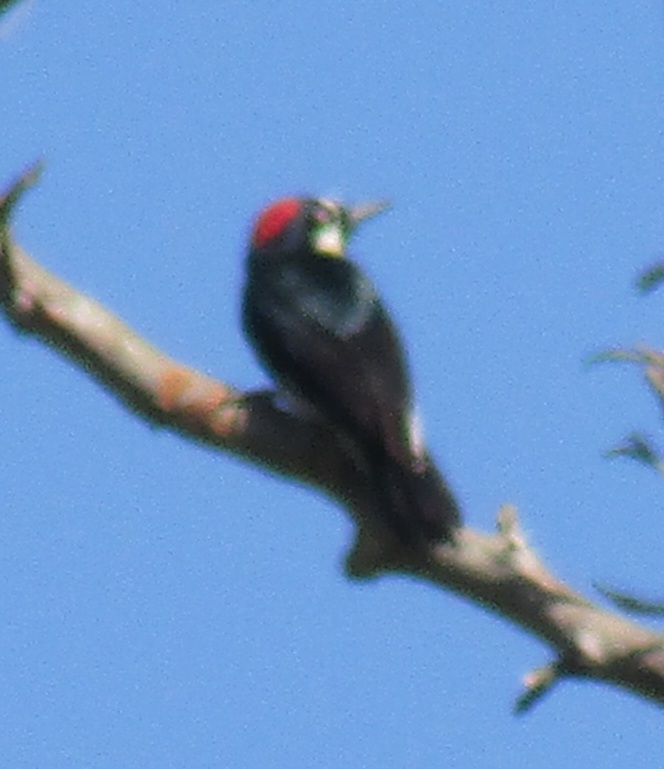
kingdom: Animalia
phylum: Chordata
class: Aves
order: Piciformes
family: Picidae
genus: Melanerpes
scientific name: Melanerpes formicivorus
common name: Acorn woodpecker
